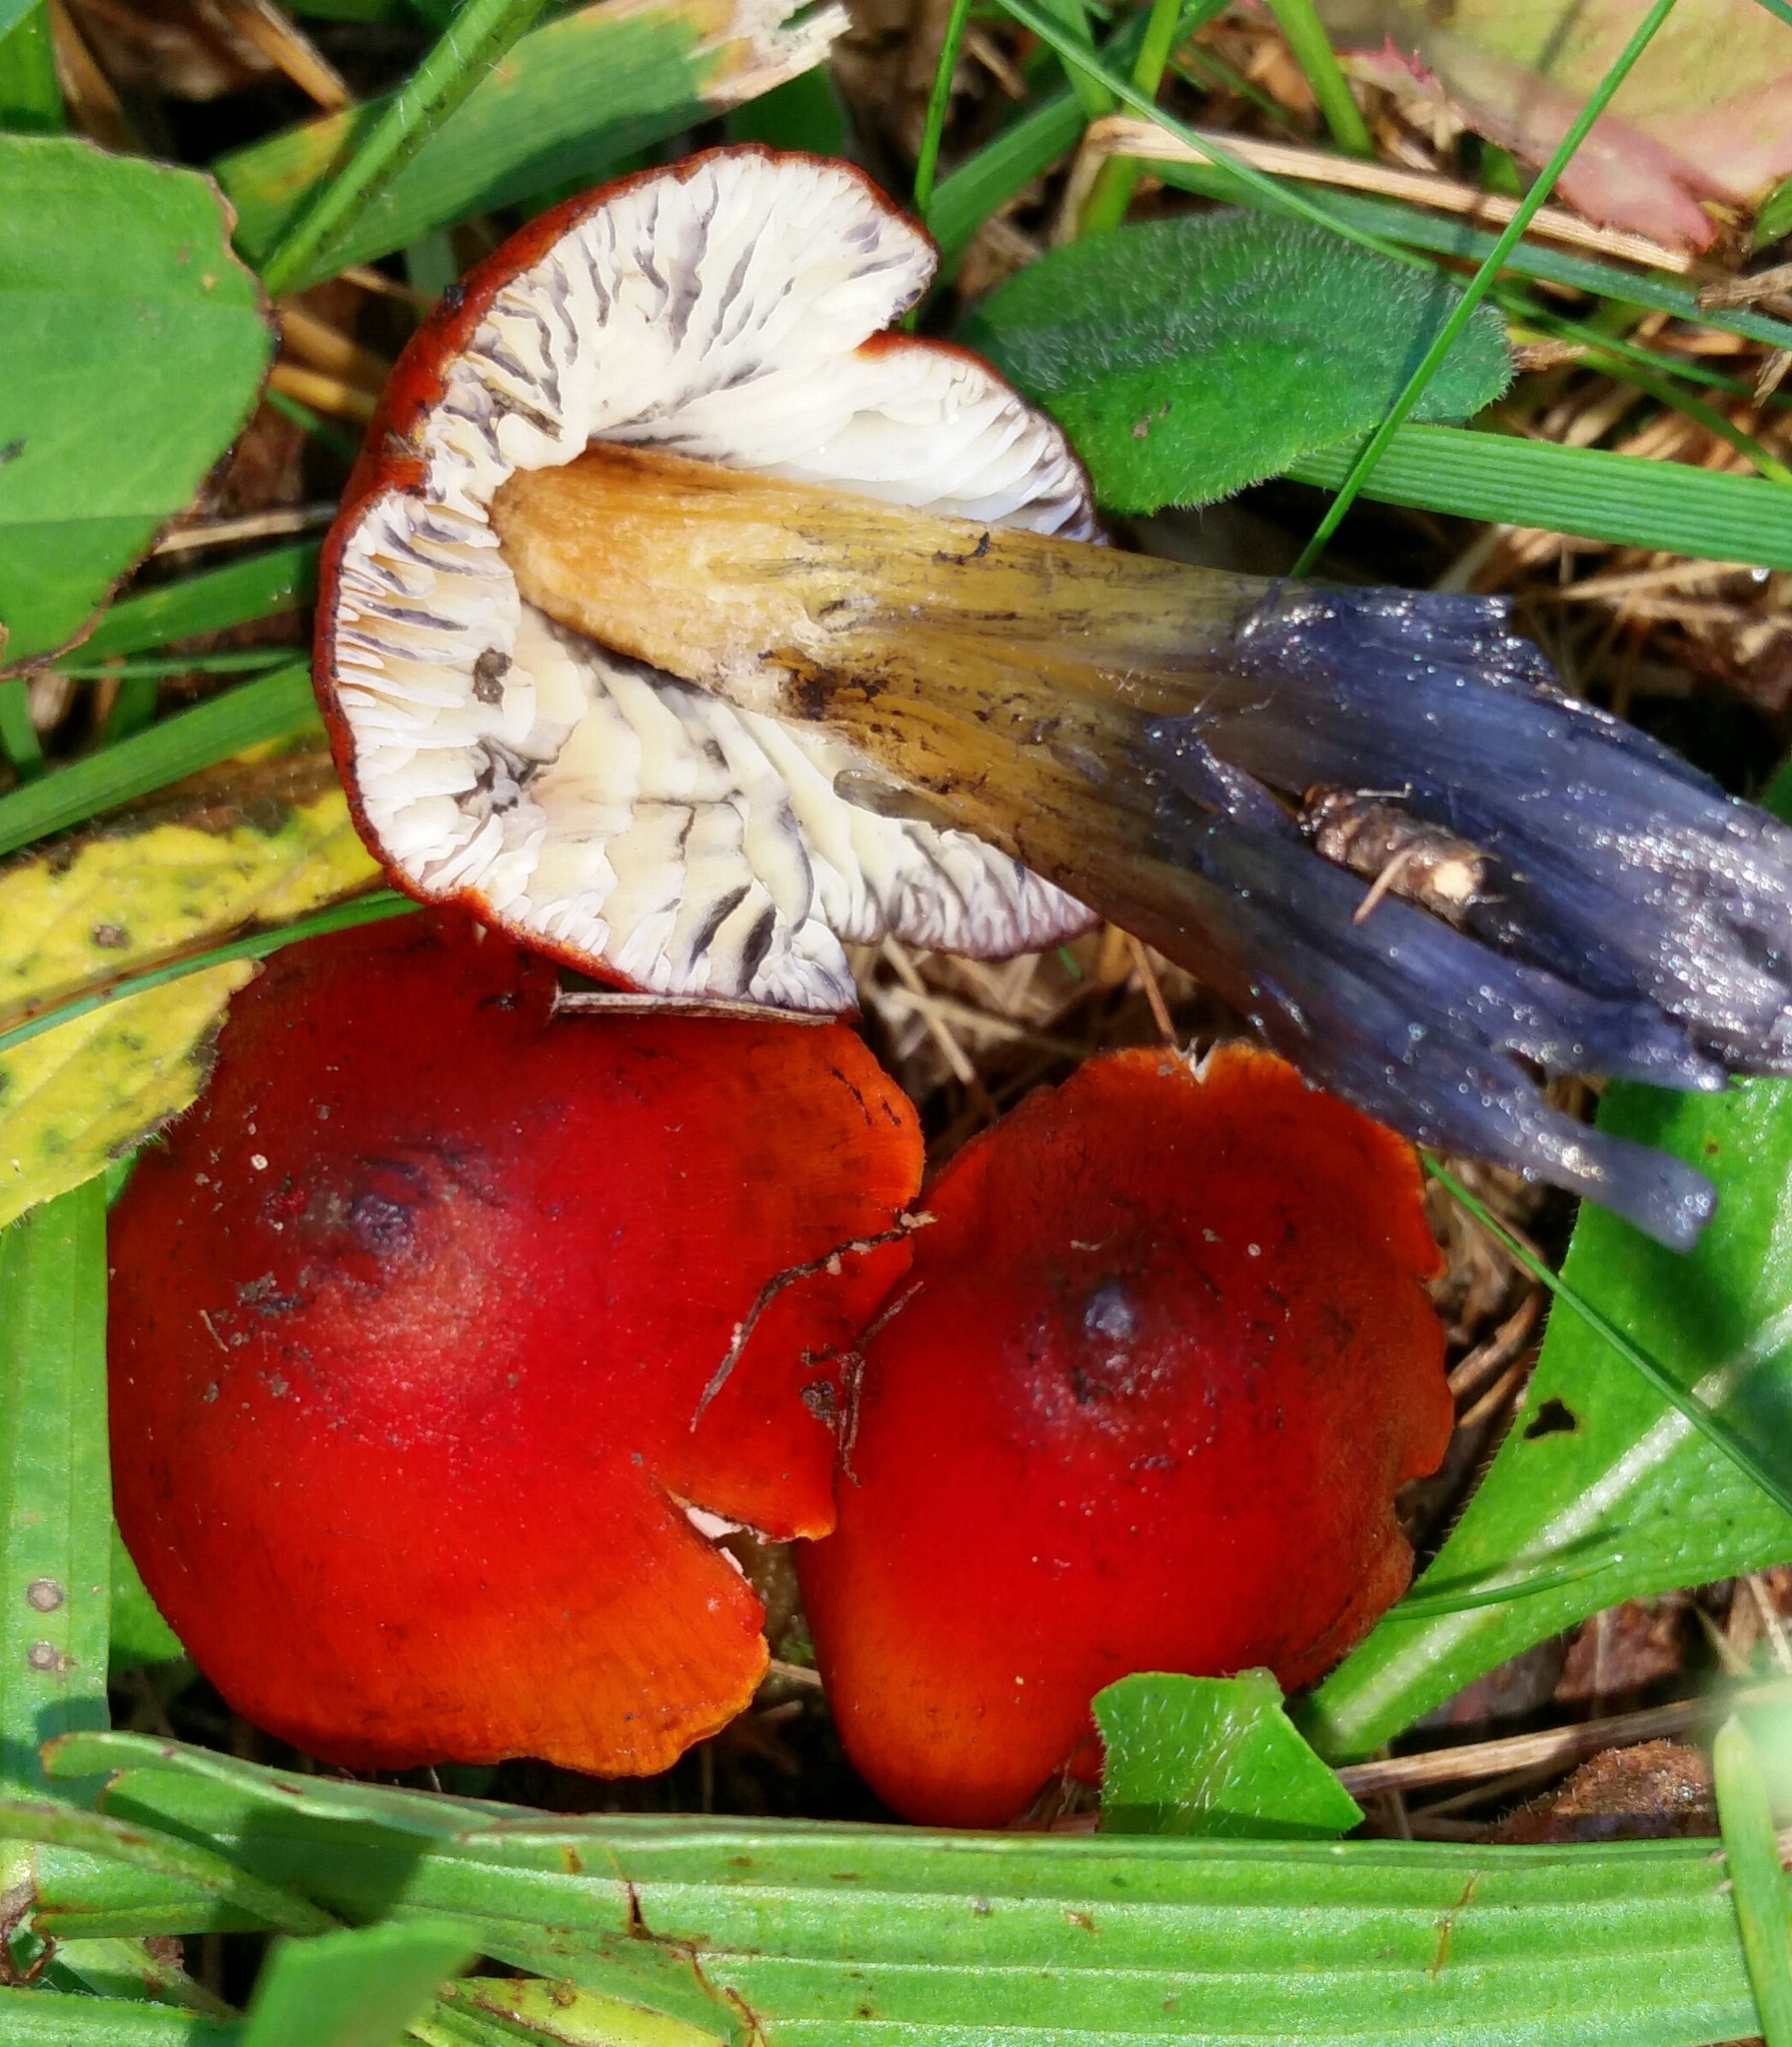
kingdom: Fungi
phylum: Basidiomycota
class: Agaricomycetes
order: Agaricales
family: Hygrophoraceae
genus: Hygrocybe
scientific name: Hygrocybe conica
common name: Blackening wax-cap
